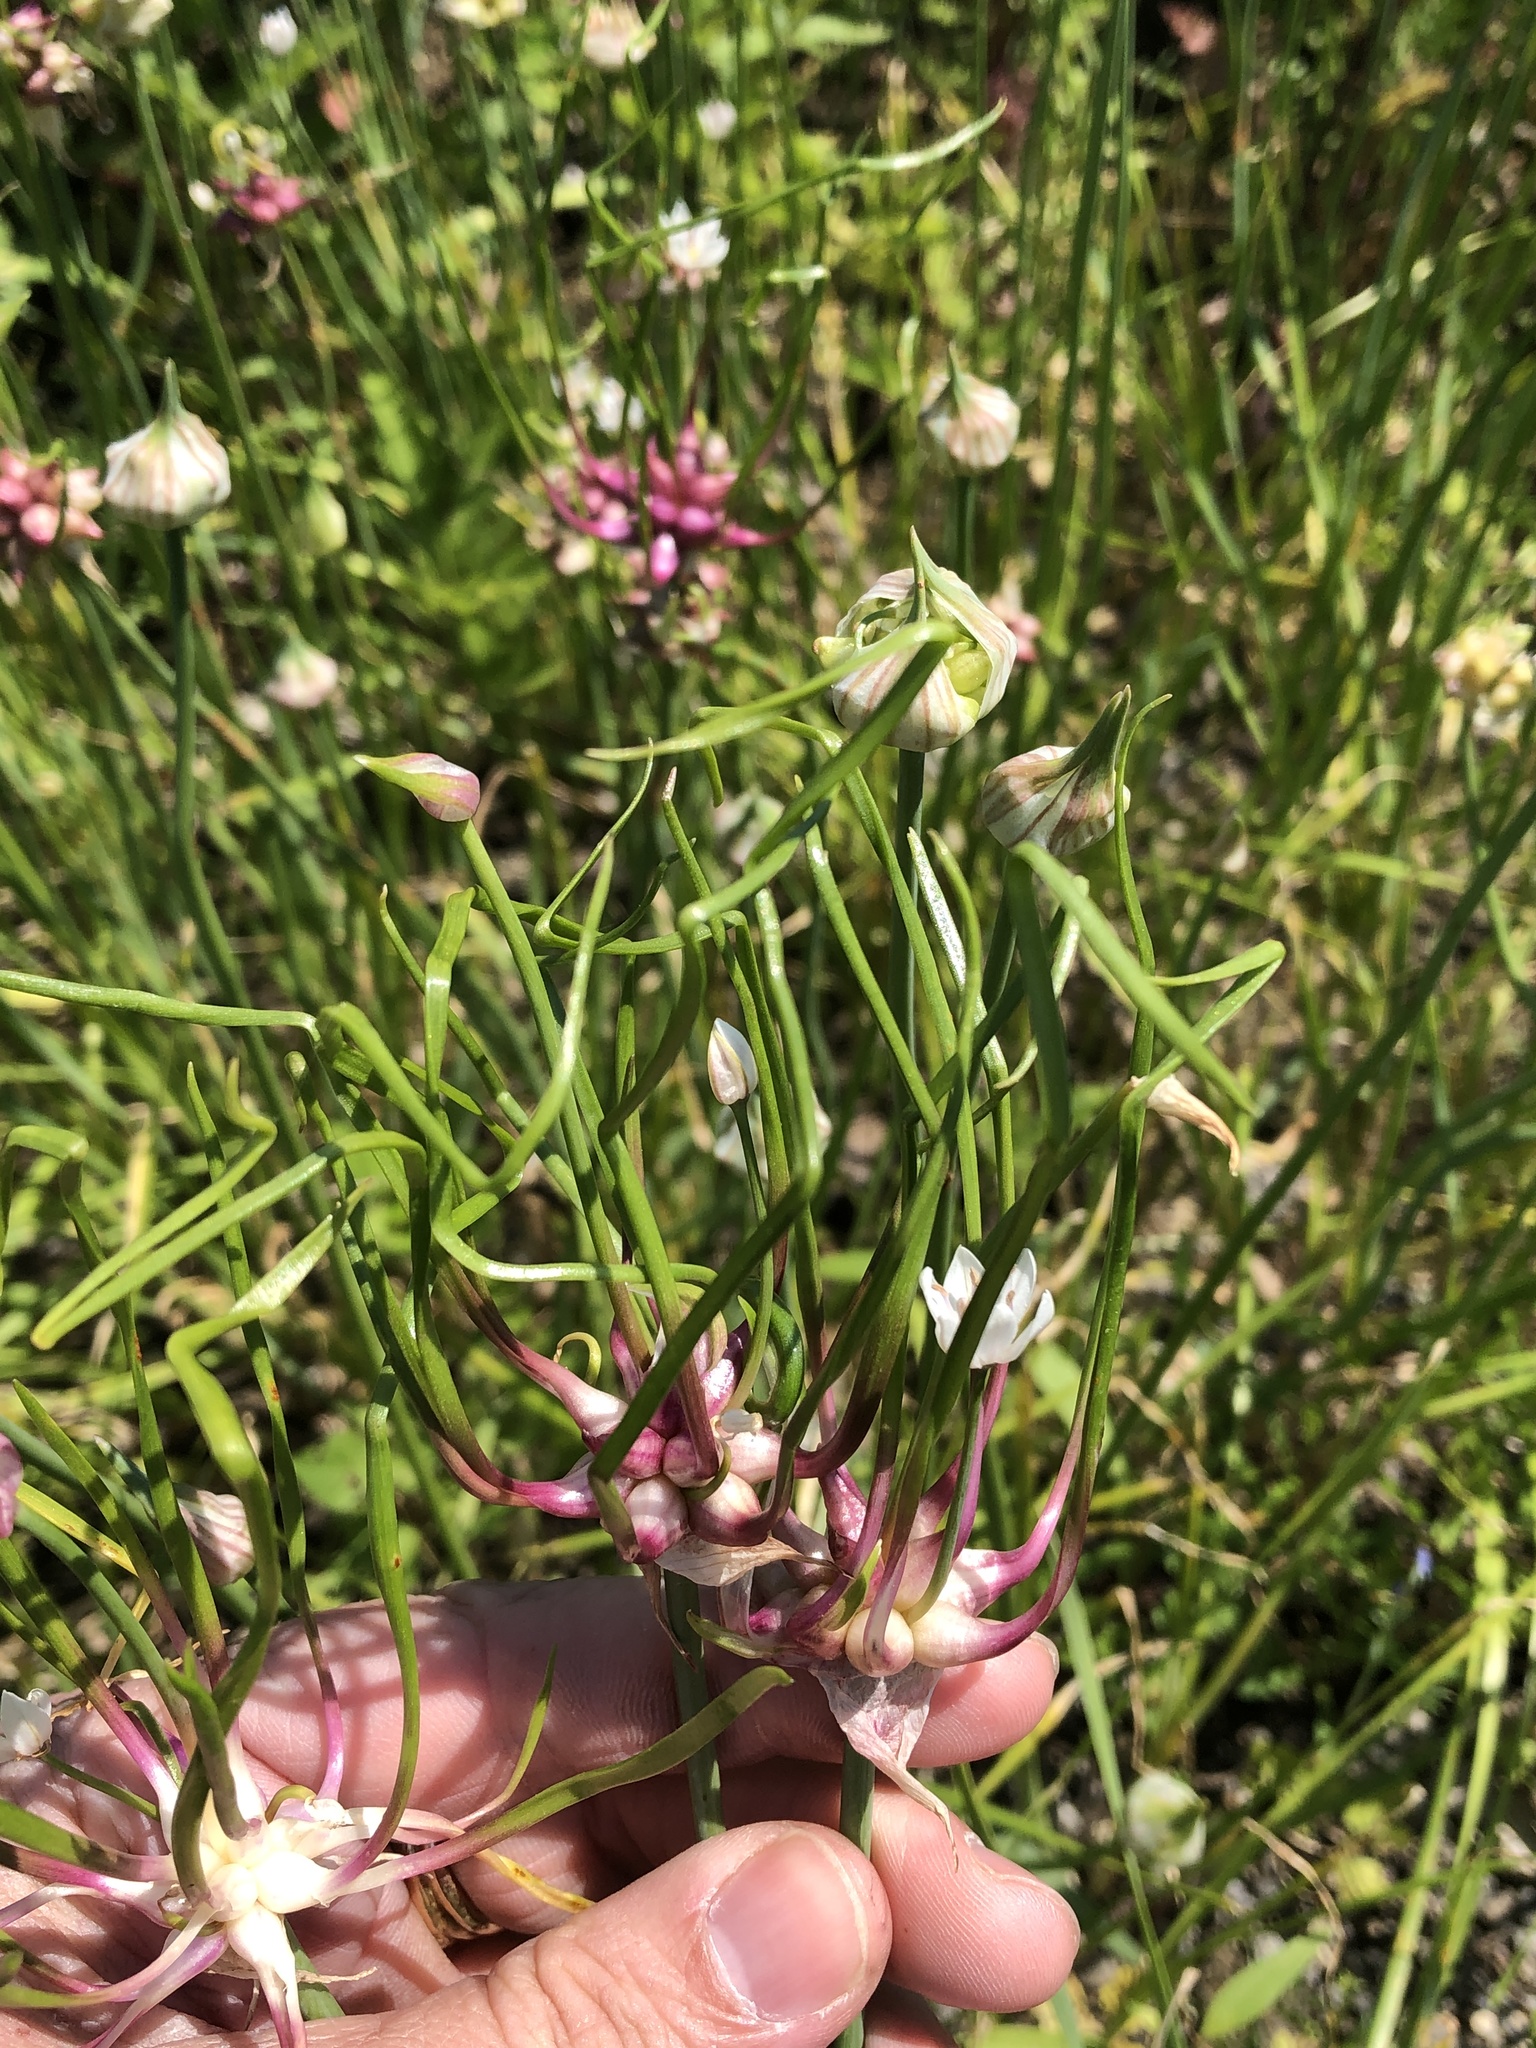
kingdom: Plantae
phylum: Tracheophyta
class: Liliopsida
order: Asparagales
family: Amaryllidaceae
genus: Allium
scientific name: Allium canadense
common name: Meadow garlic
